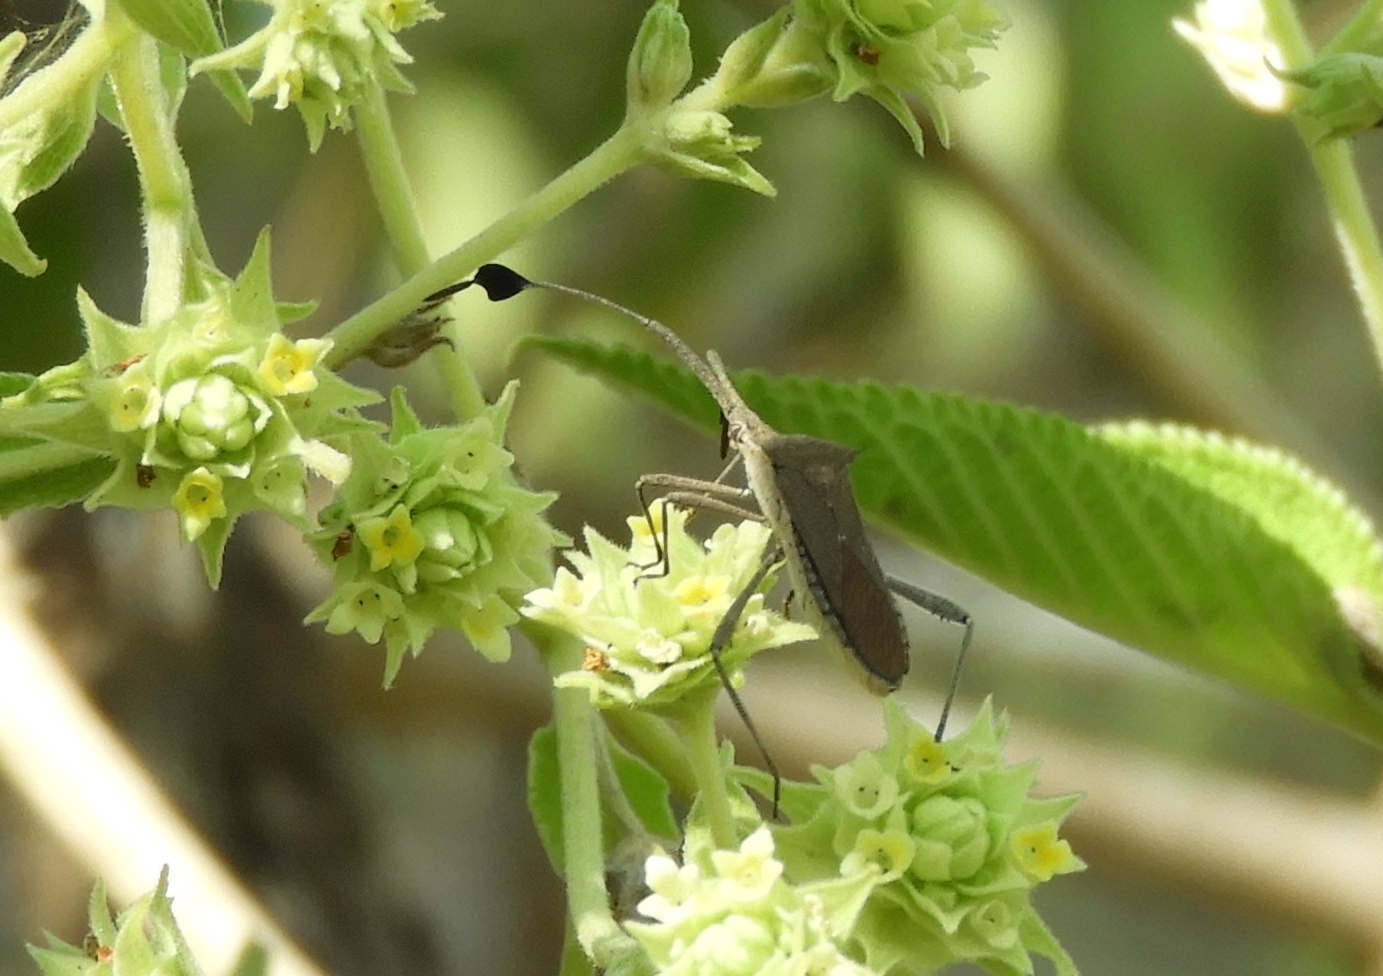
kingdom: Animalia
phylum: Arthropoda
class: Insecta
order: Hemiptera
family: Coreidae
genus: Chariesterus
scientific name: Chariesterus
